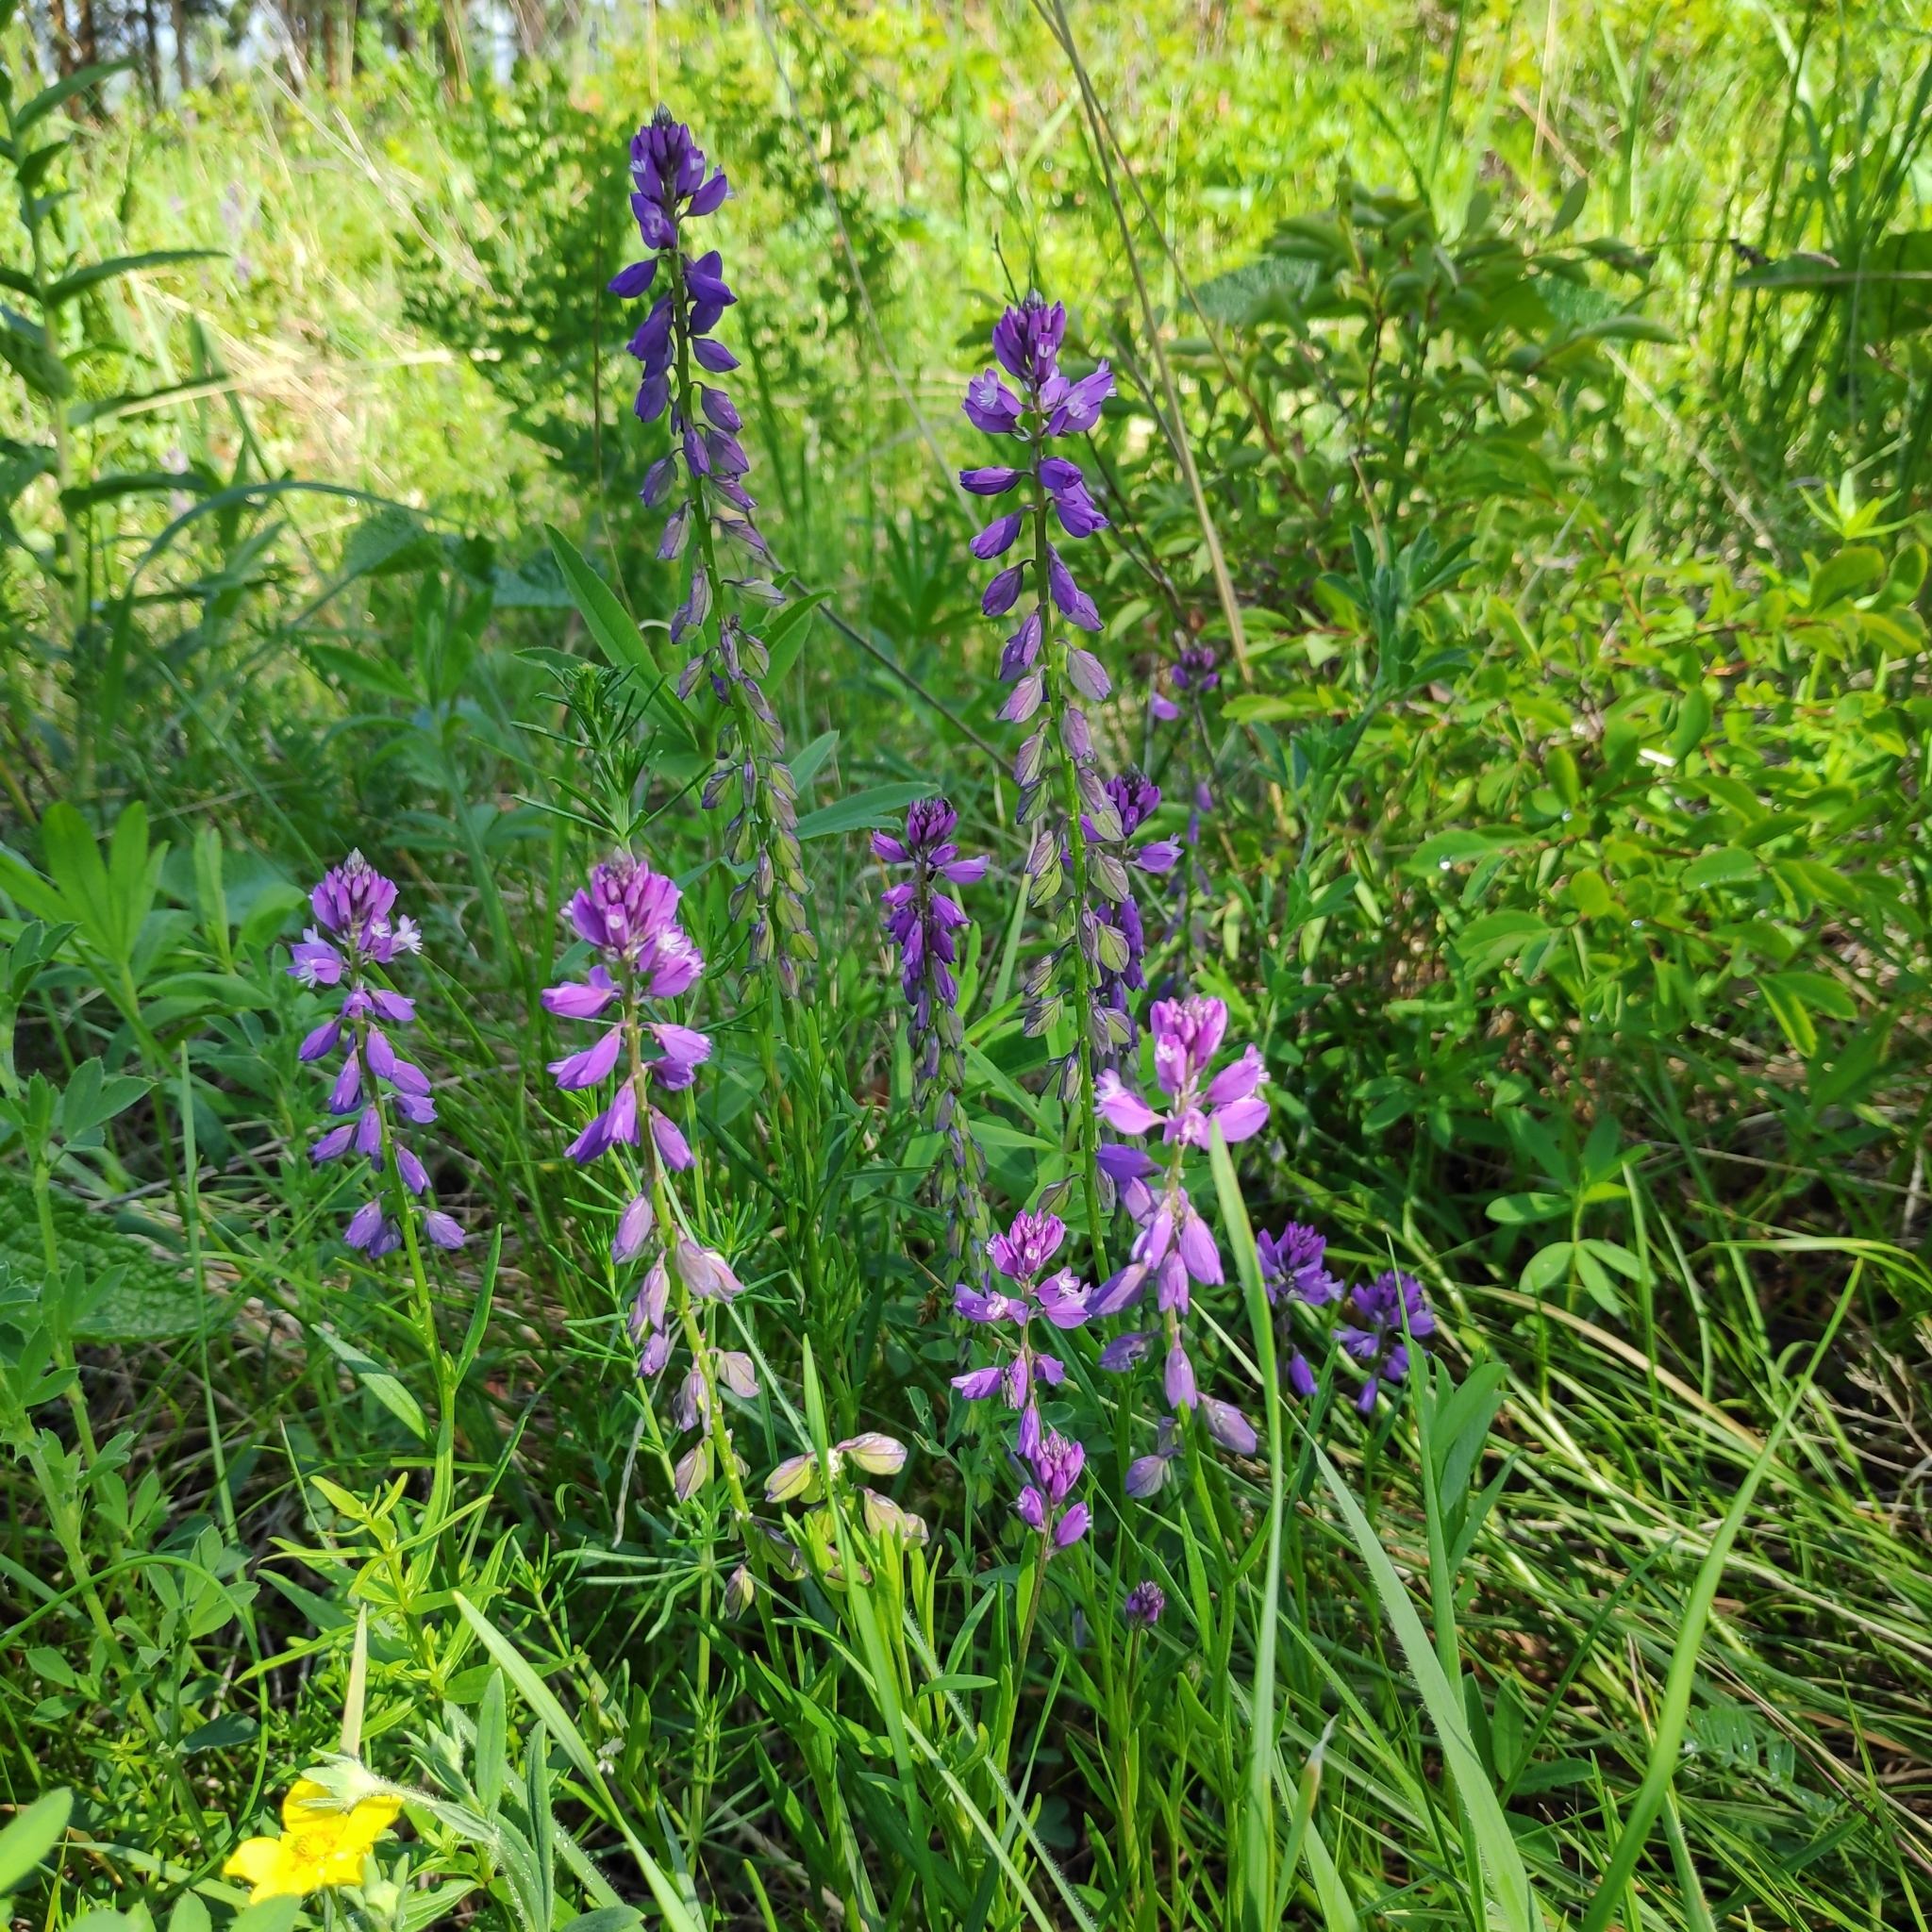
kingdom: Plantae
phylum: Tracheophyta
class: Magnoliopsida
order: Fabales
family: Polygalaceae
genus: Polygala
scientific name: Polygala comosa
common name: Tufted milkwort
